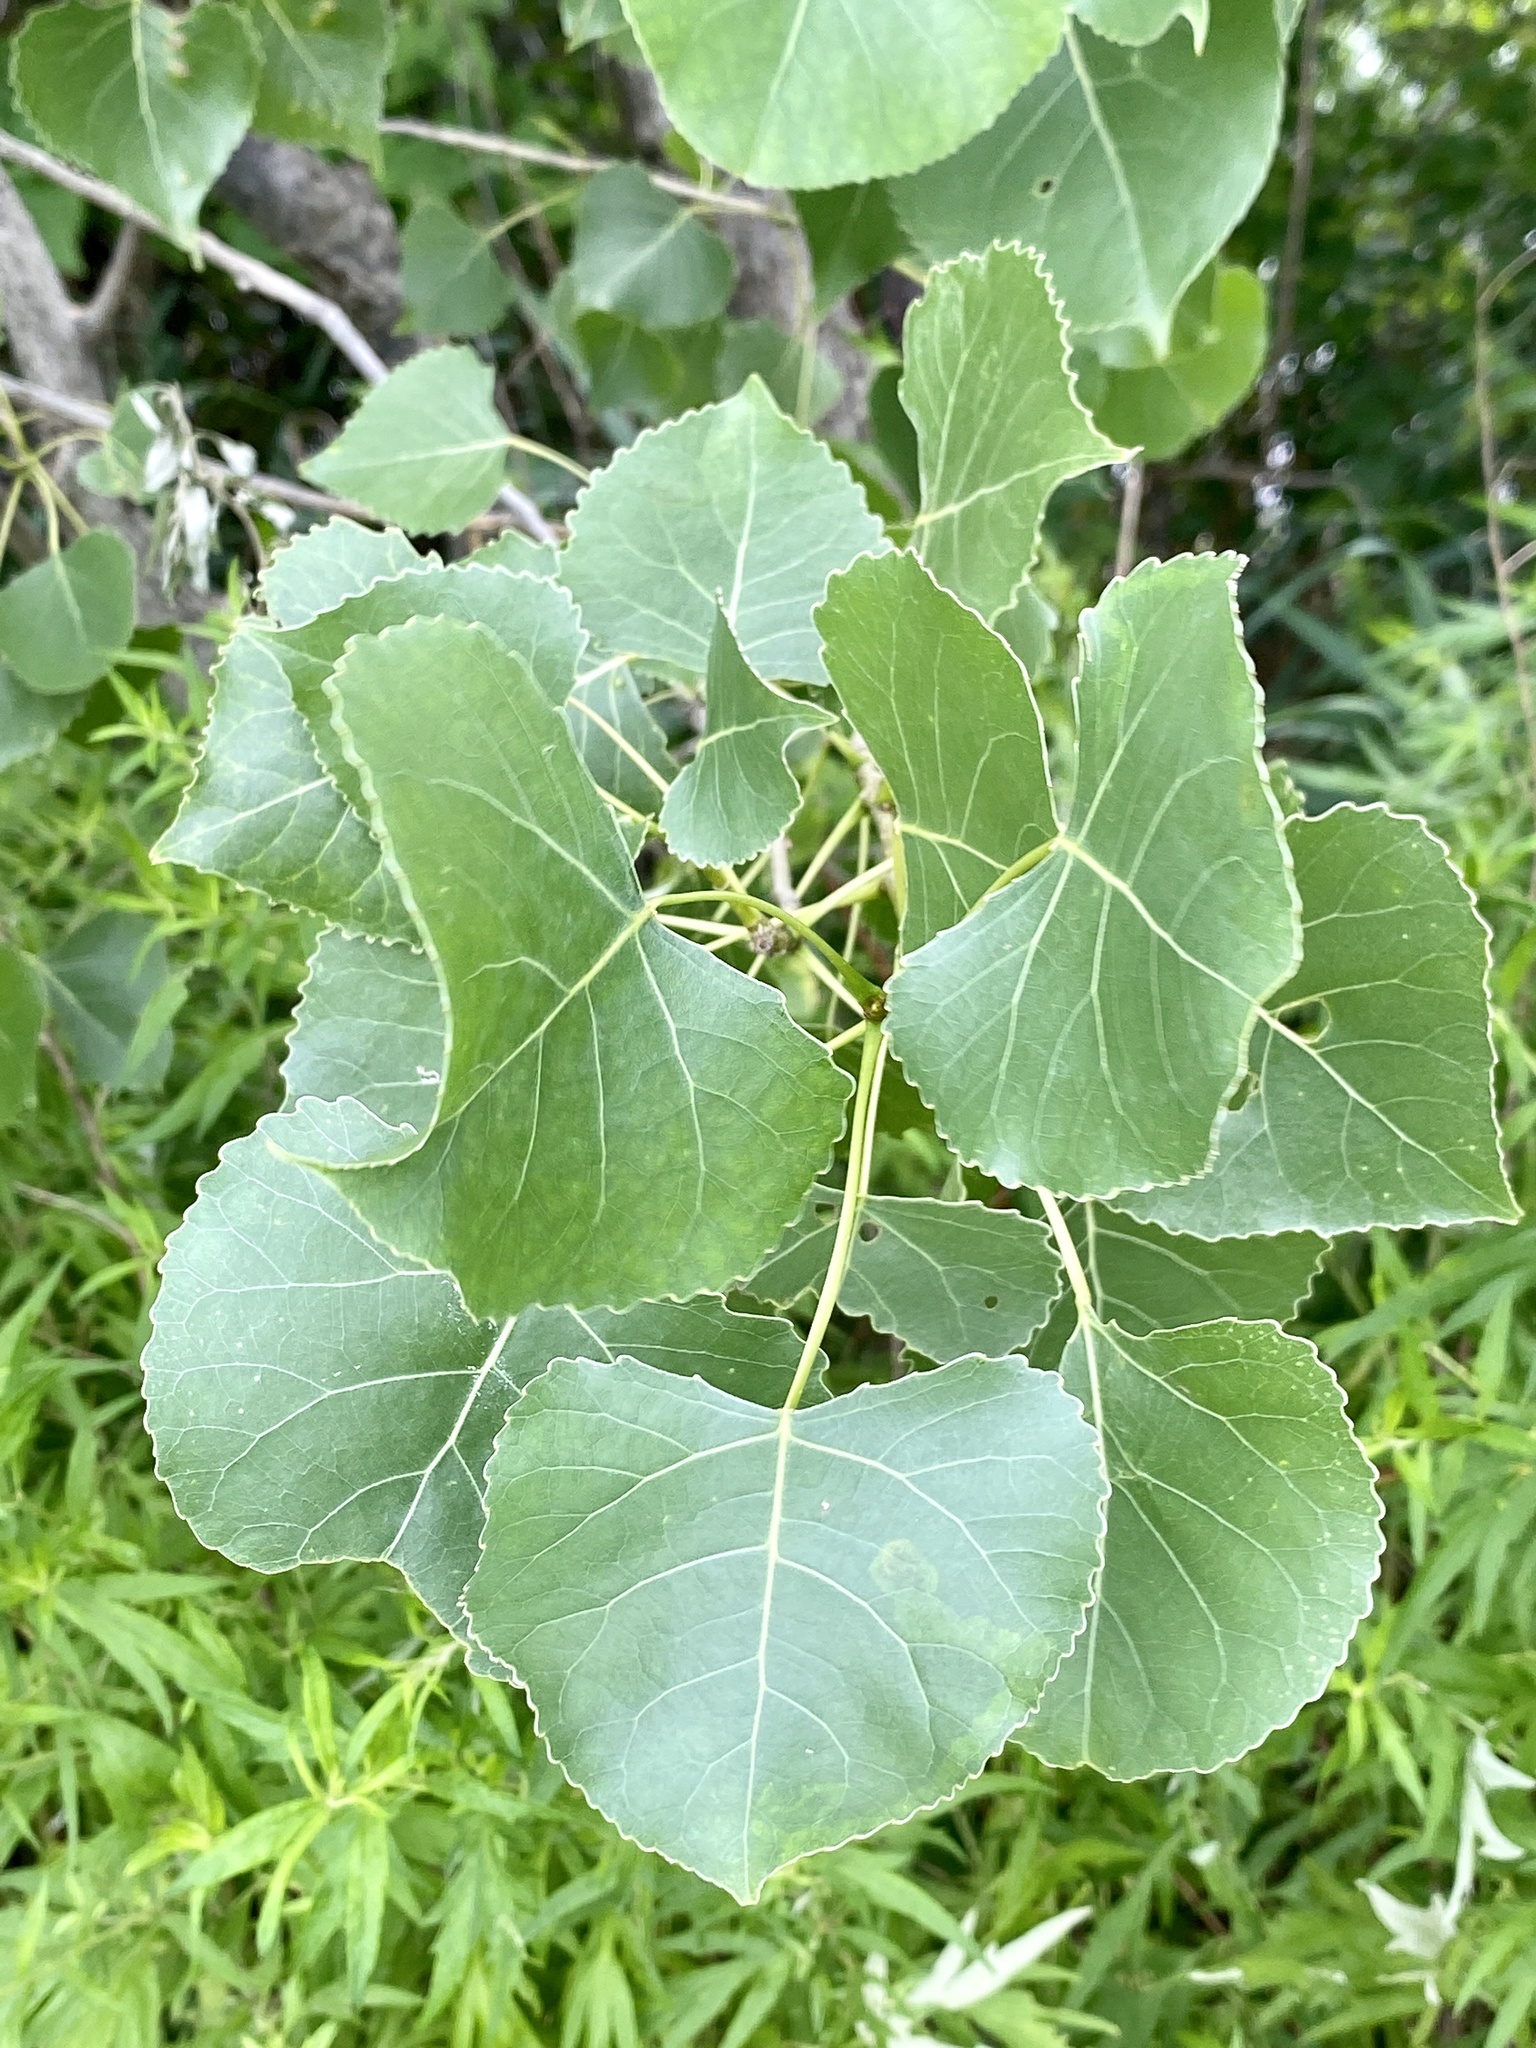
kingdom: Plantae
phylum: Tracheophyta
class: Magnoliopsida
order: Malpighiales
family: Salicaceae
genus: Populus
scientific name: Populus deltoides
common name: Eastern cottonwood
